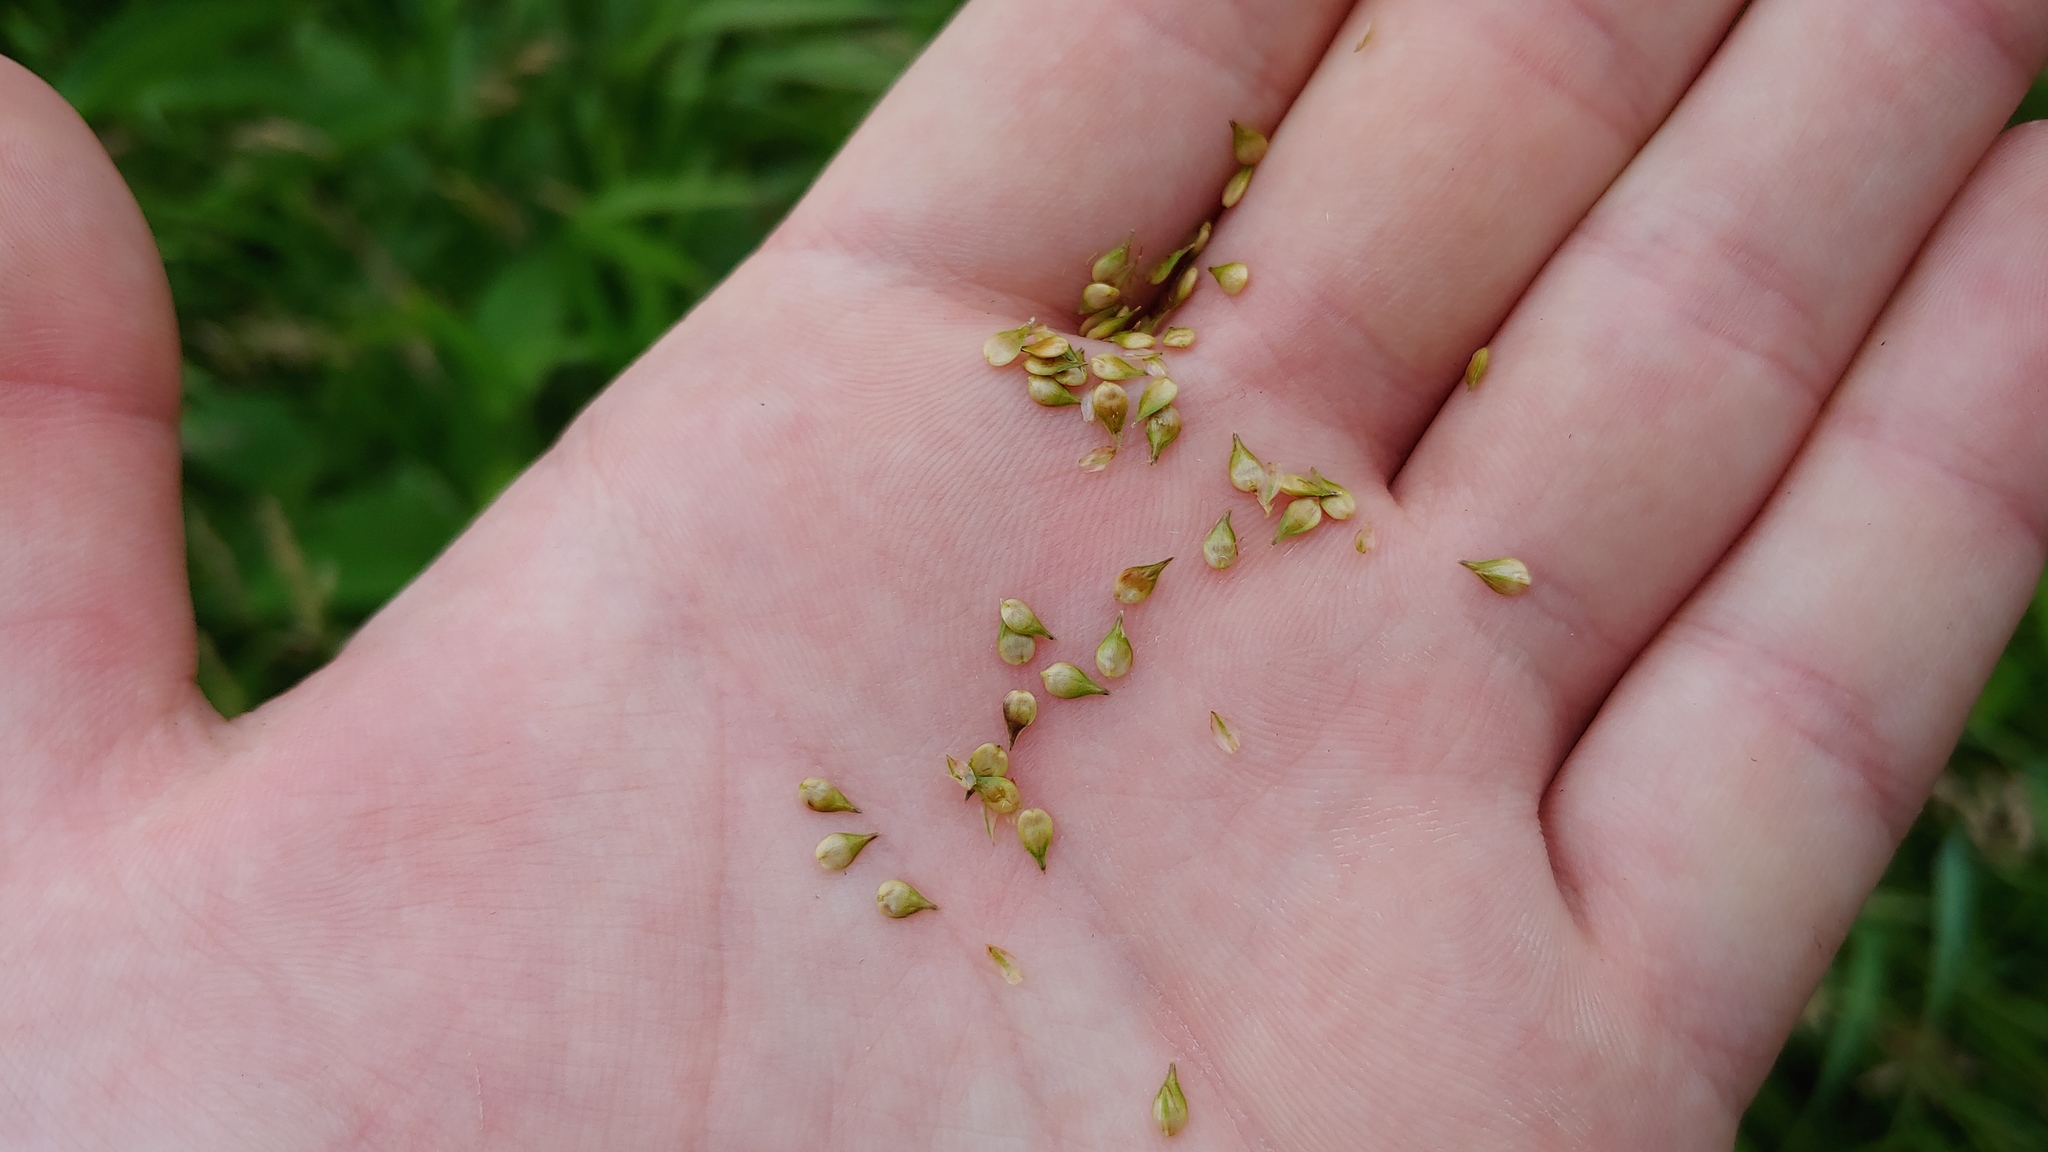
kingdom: Plantae
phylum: Tracheophyta
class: Liliopsida
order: Poales
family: Cyperaceae
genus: Carex
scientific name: Carex aggregata
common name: Crowded sedge
